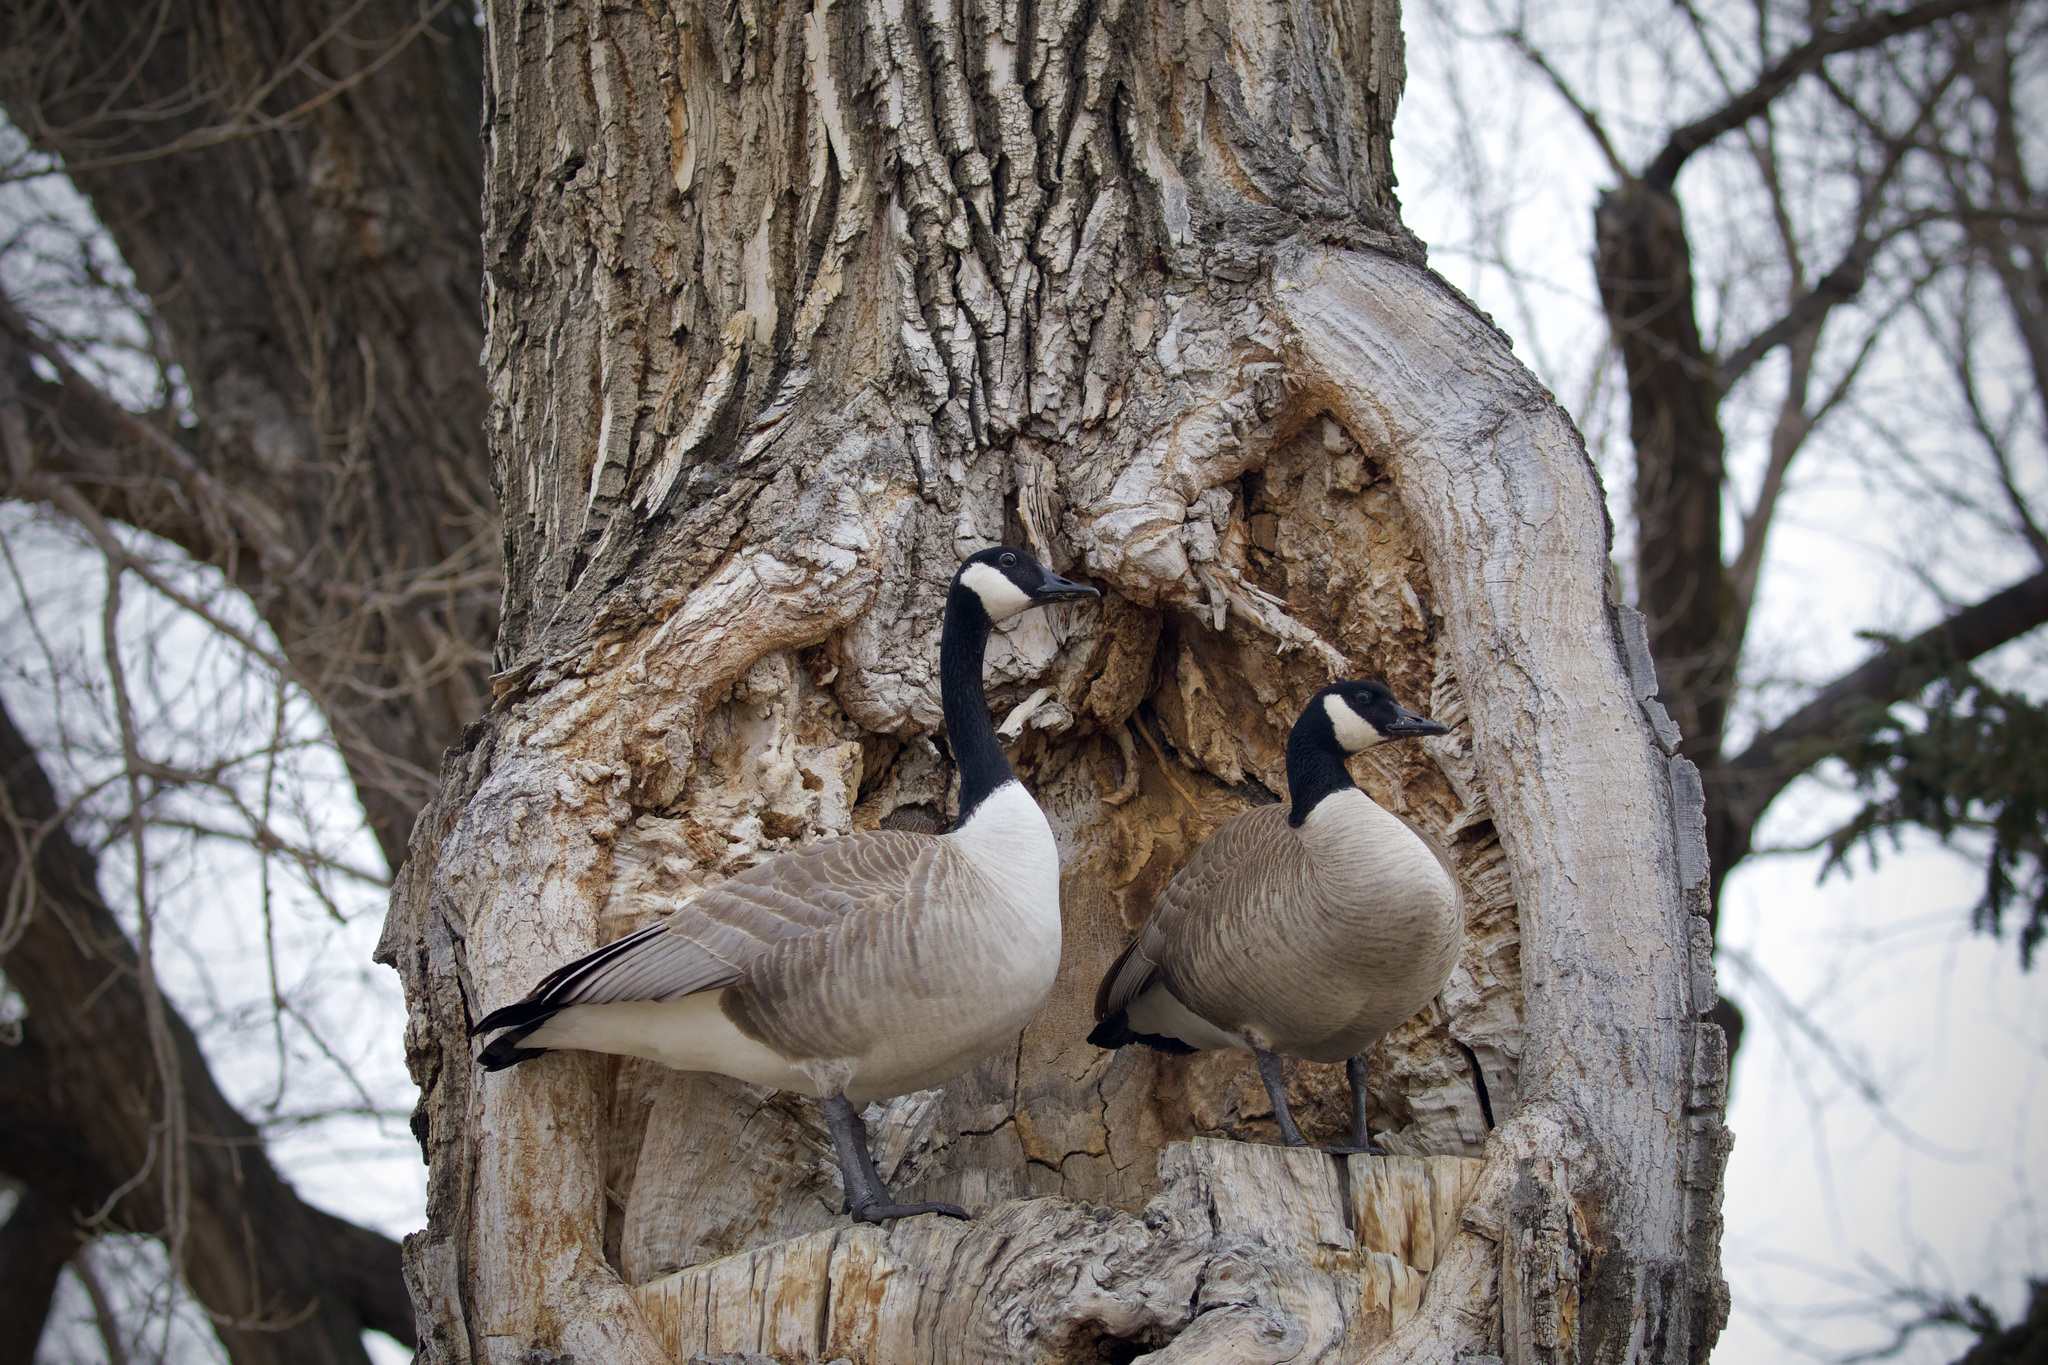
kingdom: Animalia
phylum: Chordata
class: Aves
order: Anseriformes
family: Anatidae
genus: Branta
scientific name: Branta canadensis
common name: Canada goose
